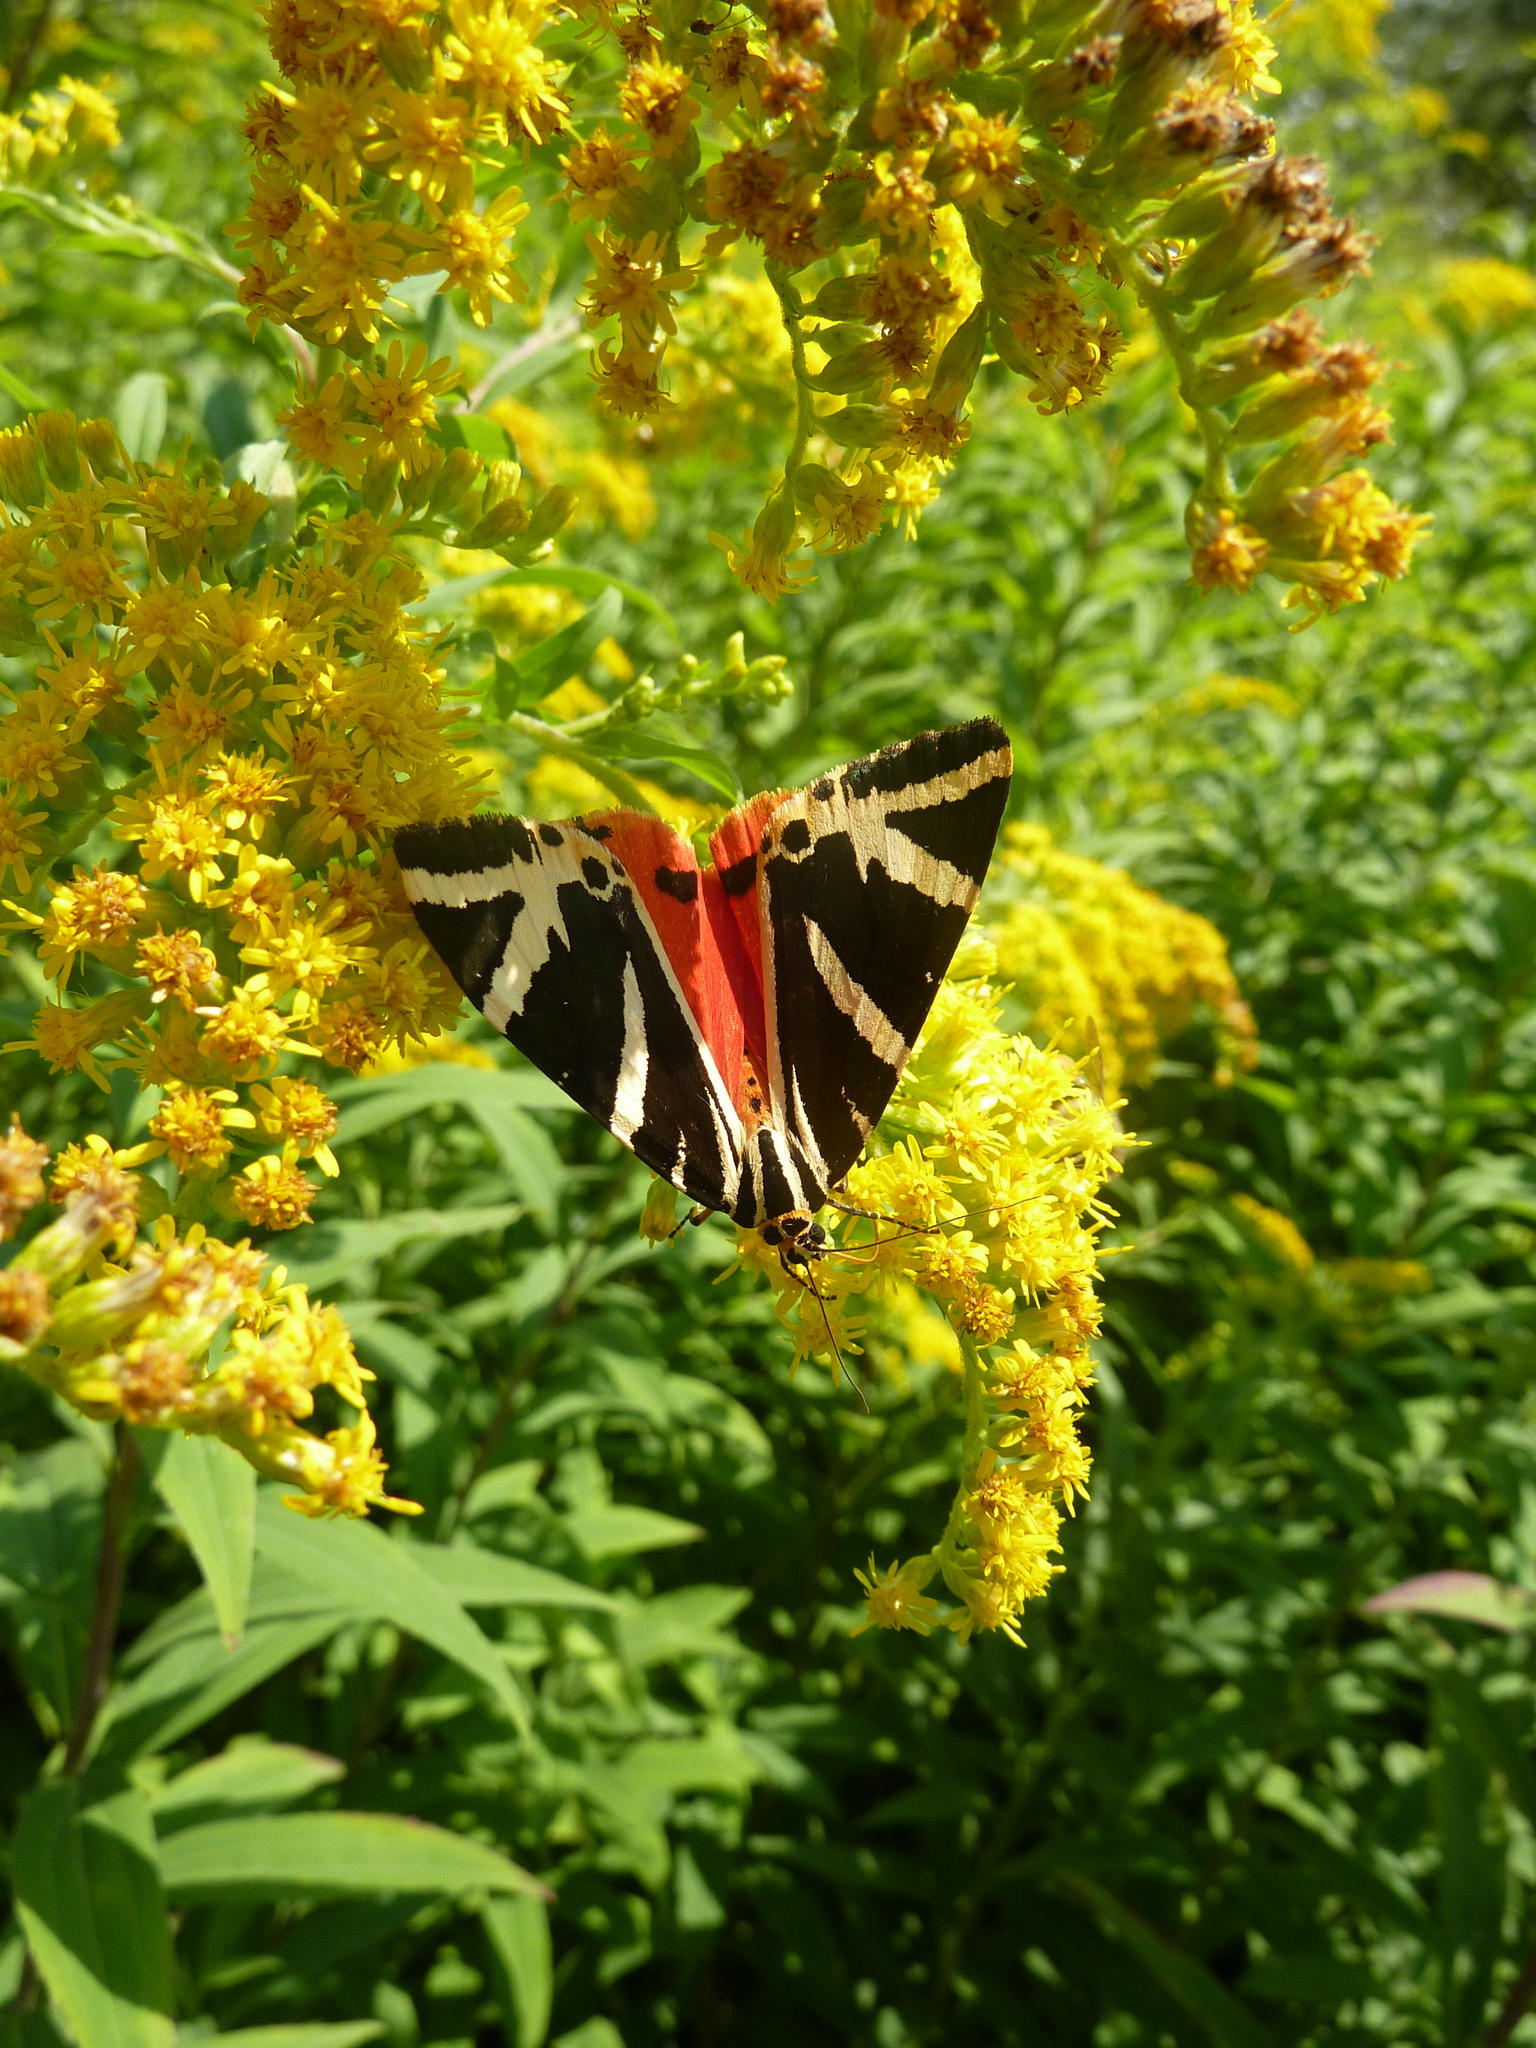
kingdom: Animalia
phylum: Arthropoda
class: Insecta
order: Lepidoptera
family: Erebidae
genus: Euplagia
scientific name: Euplagia quadripunctaria
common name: Jersey tiger
